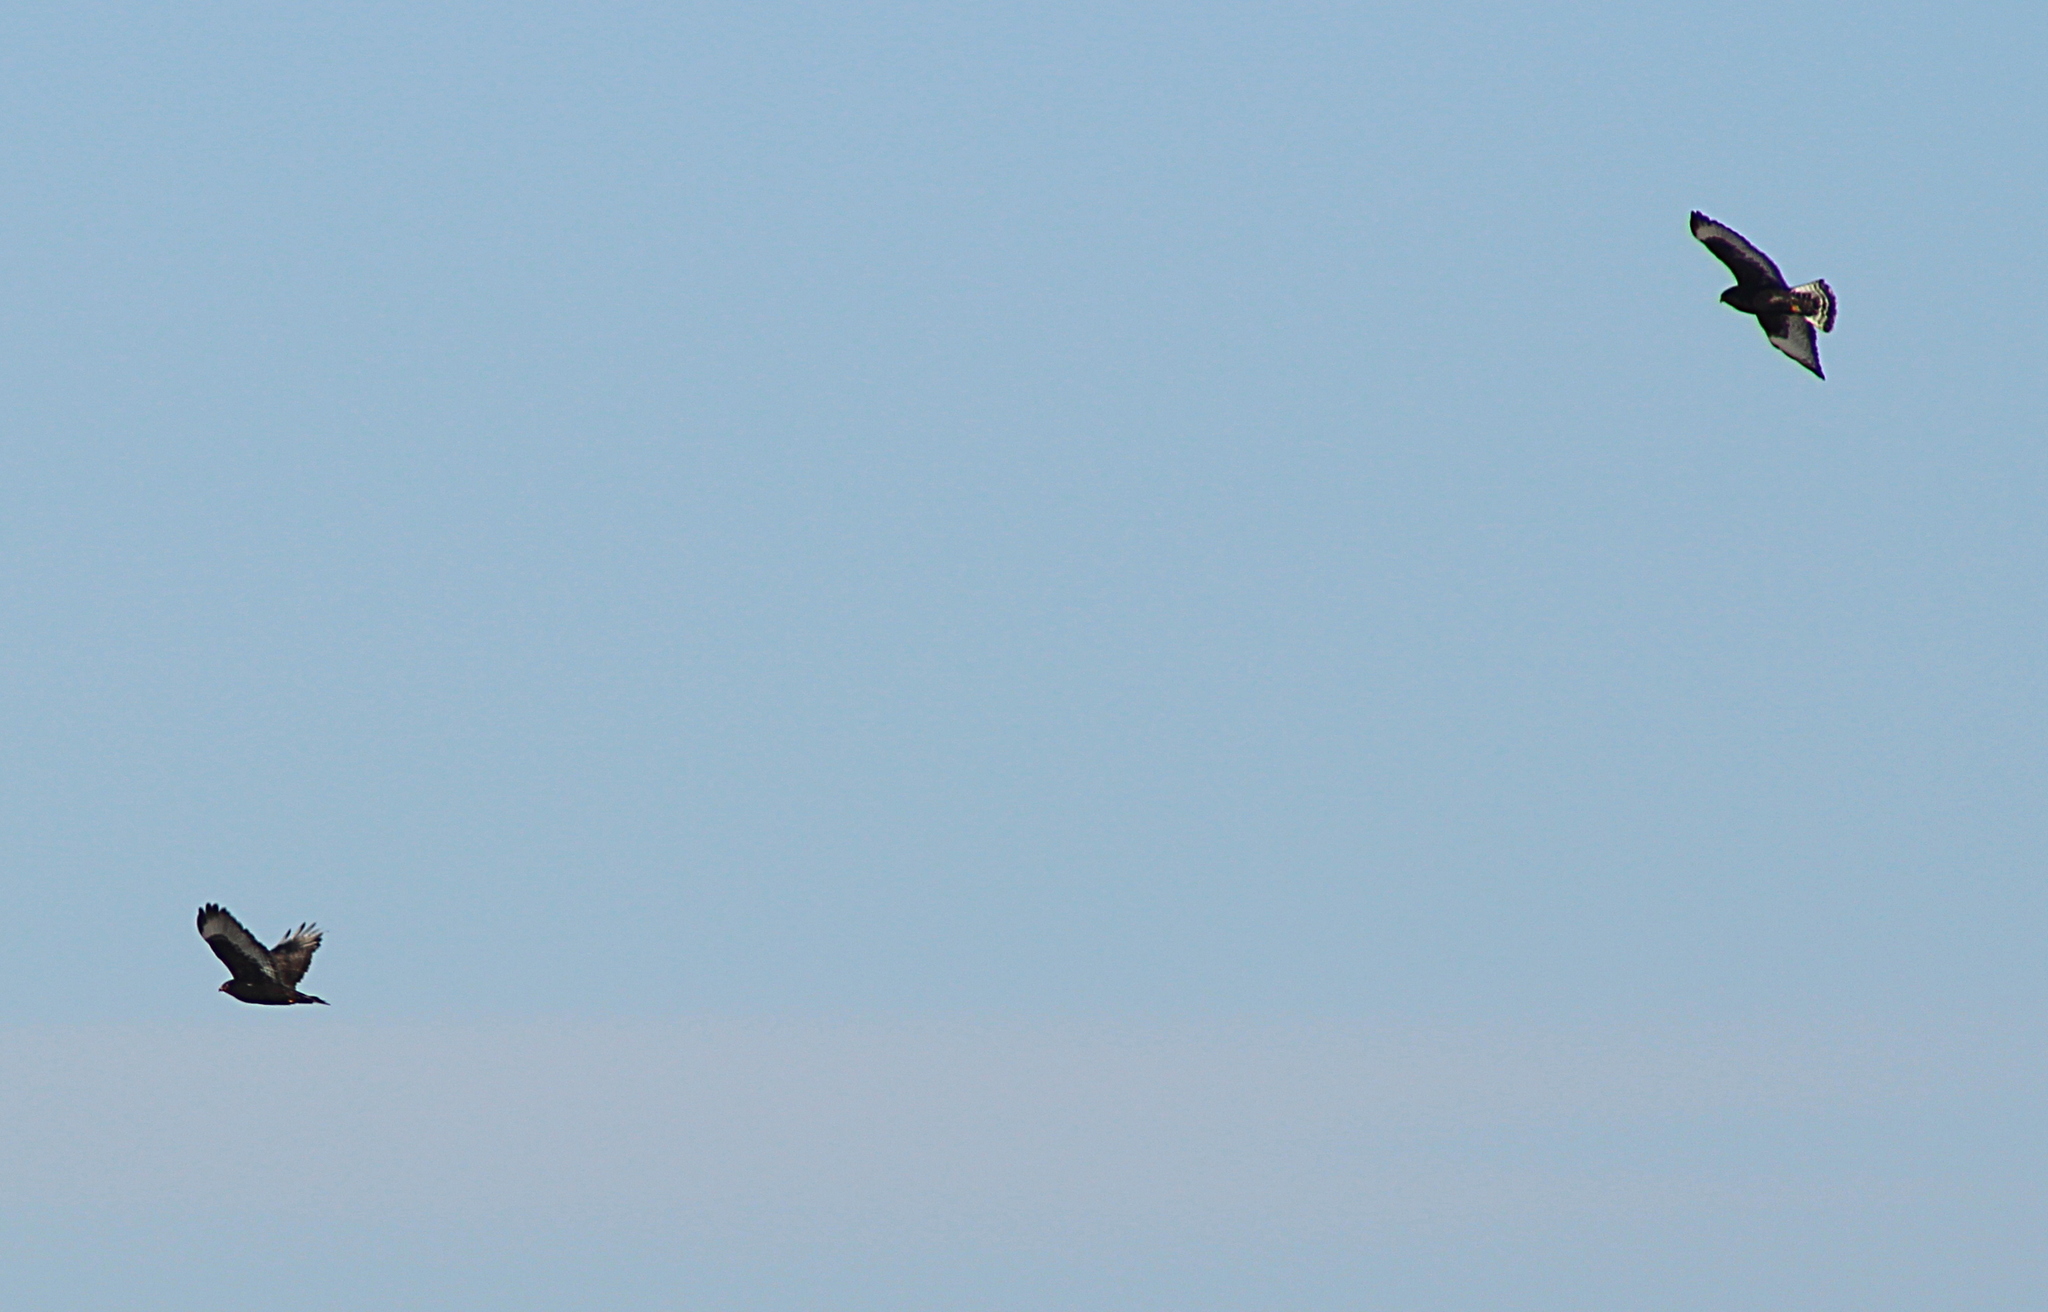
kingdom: Animalia
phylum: Chordata
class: Aves
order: Accipitriformes
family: Accipitridae
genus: Buteo
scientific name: Buteo lagopus
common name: Rough-legged buzzard
